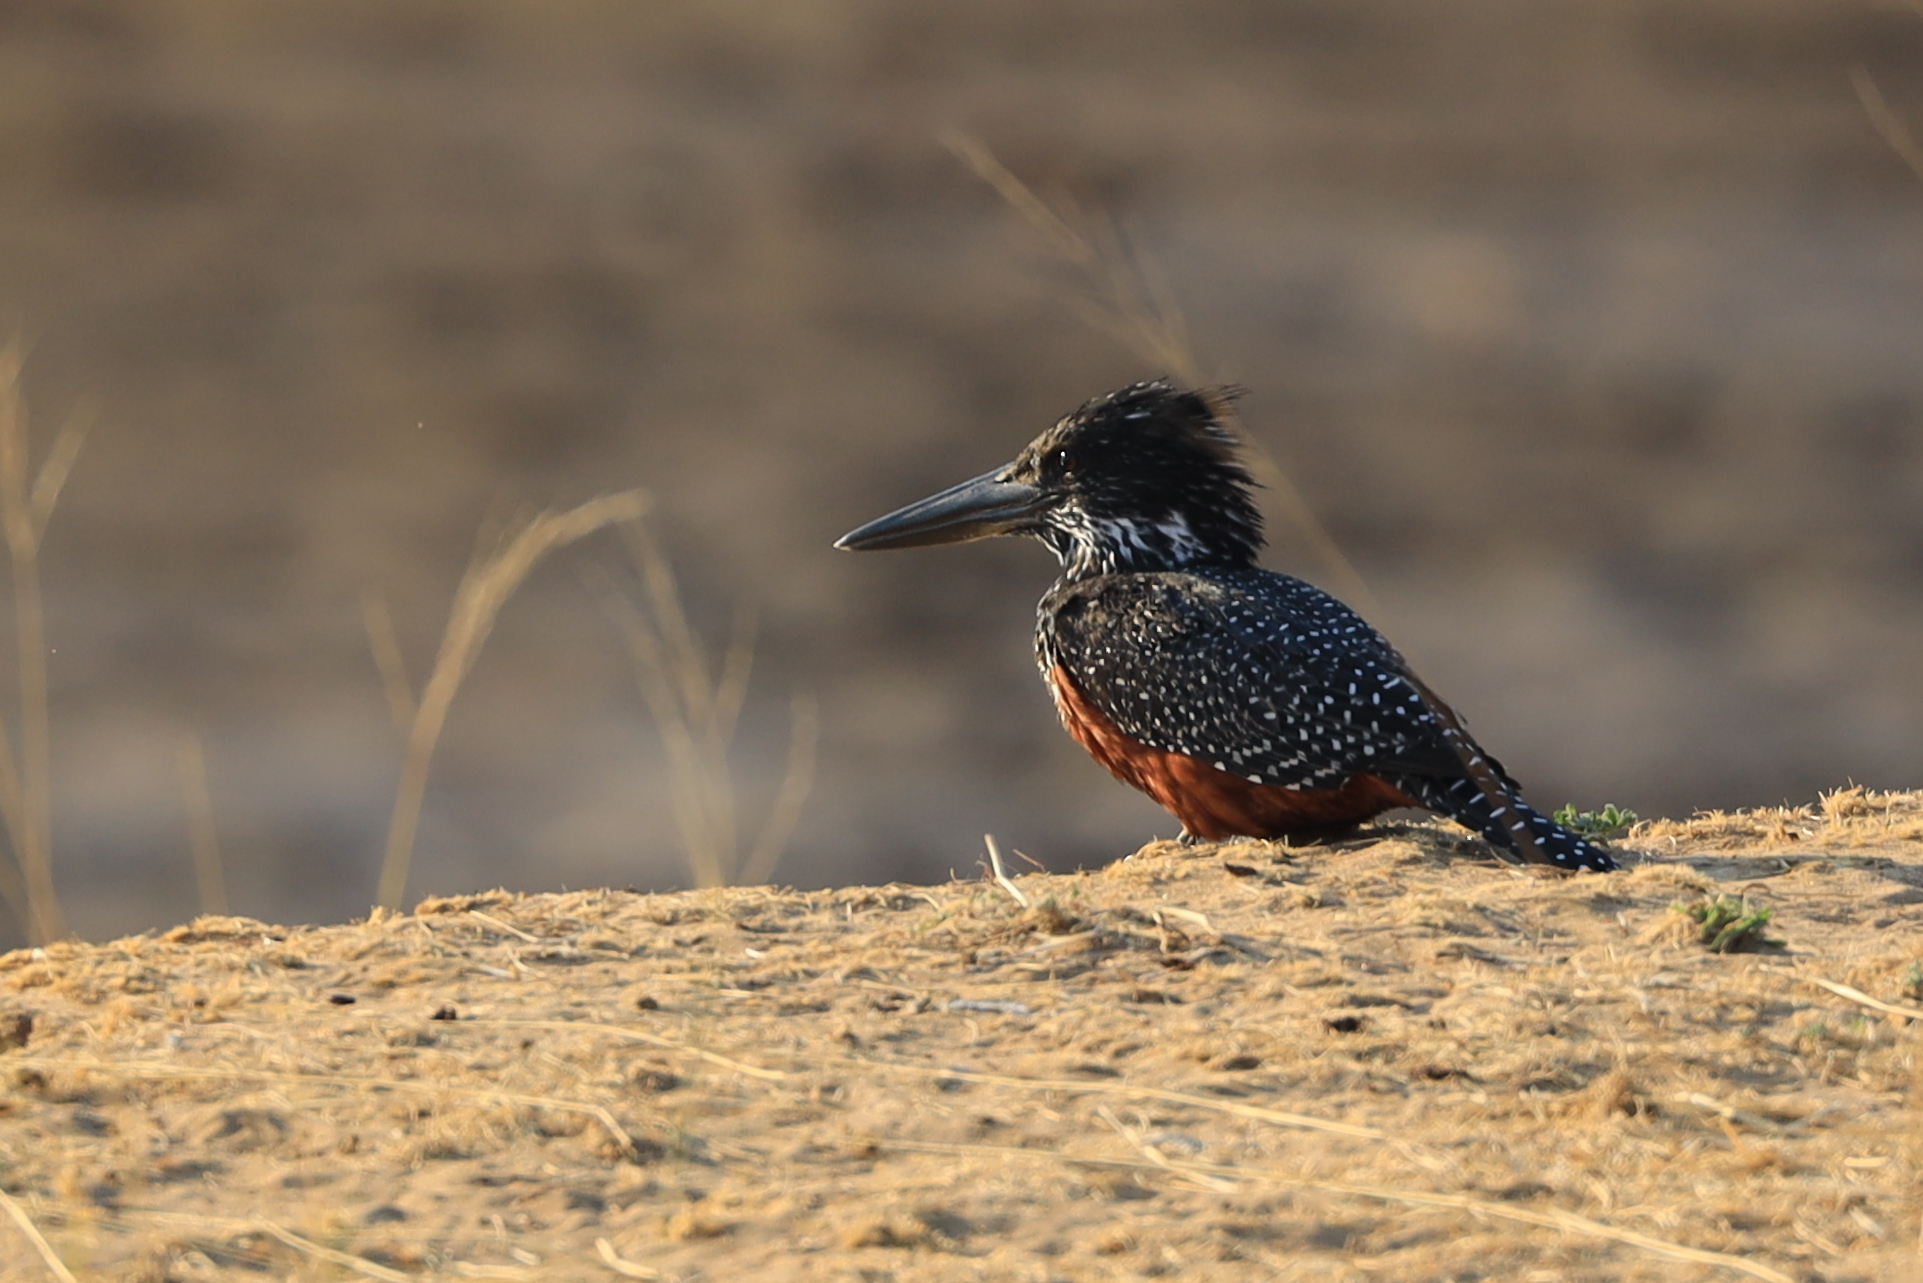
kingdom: Animalia
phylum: Chordata
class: Aves
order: Coraciiformes
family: Alcedinidae
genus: Megaceryle
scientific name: Megaceryle maxima
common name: Giant kingfisher
